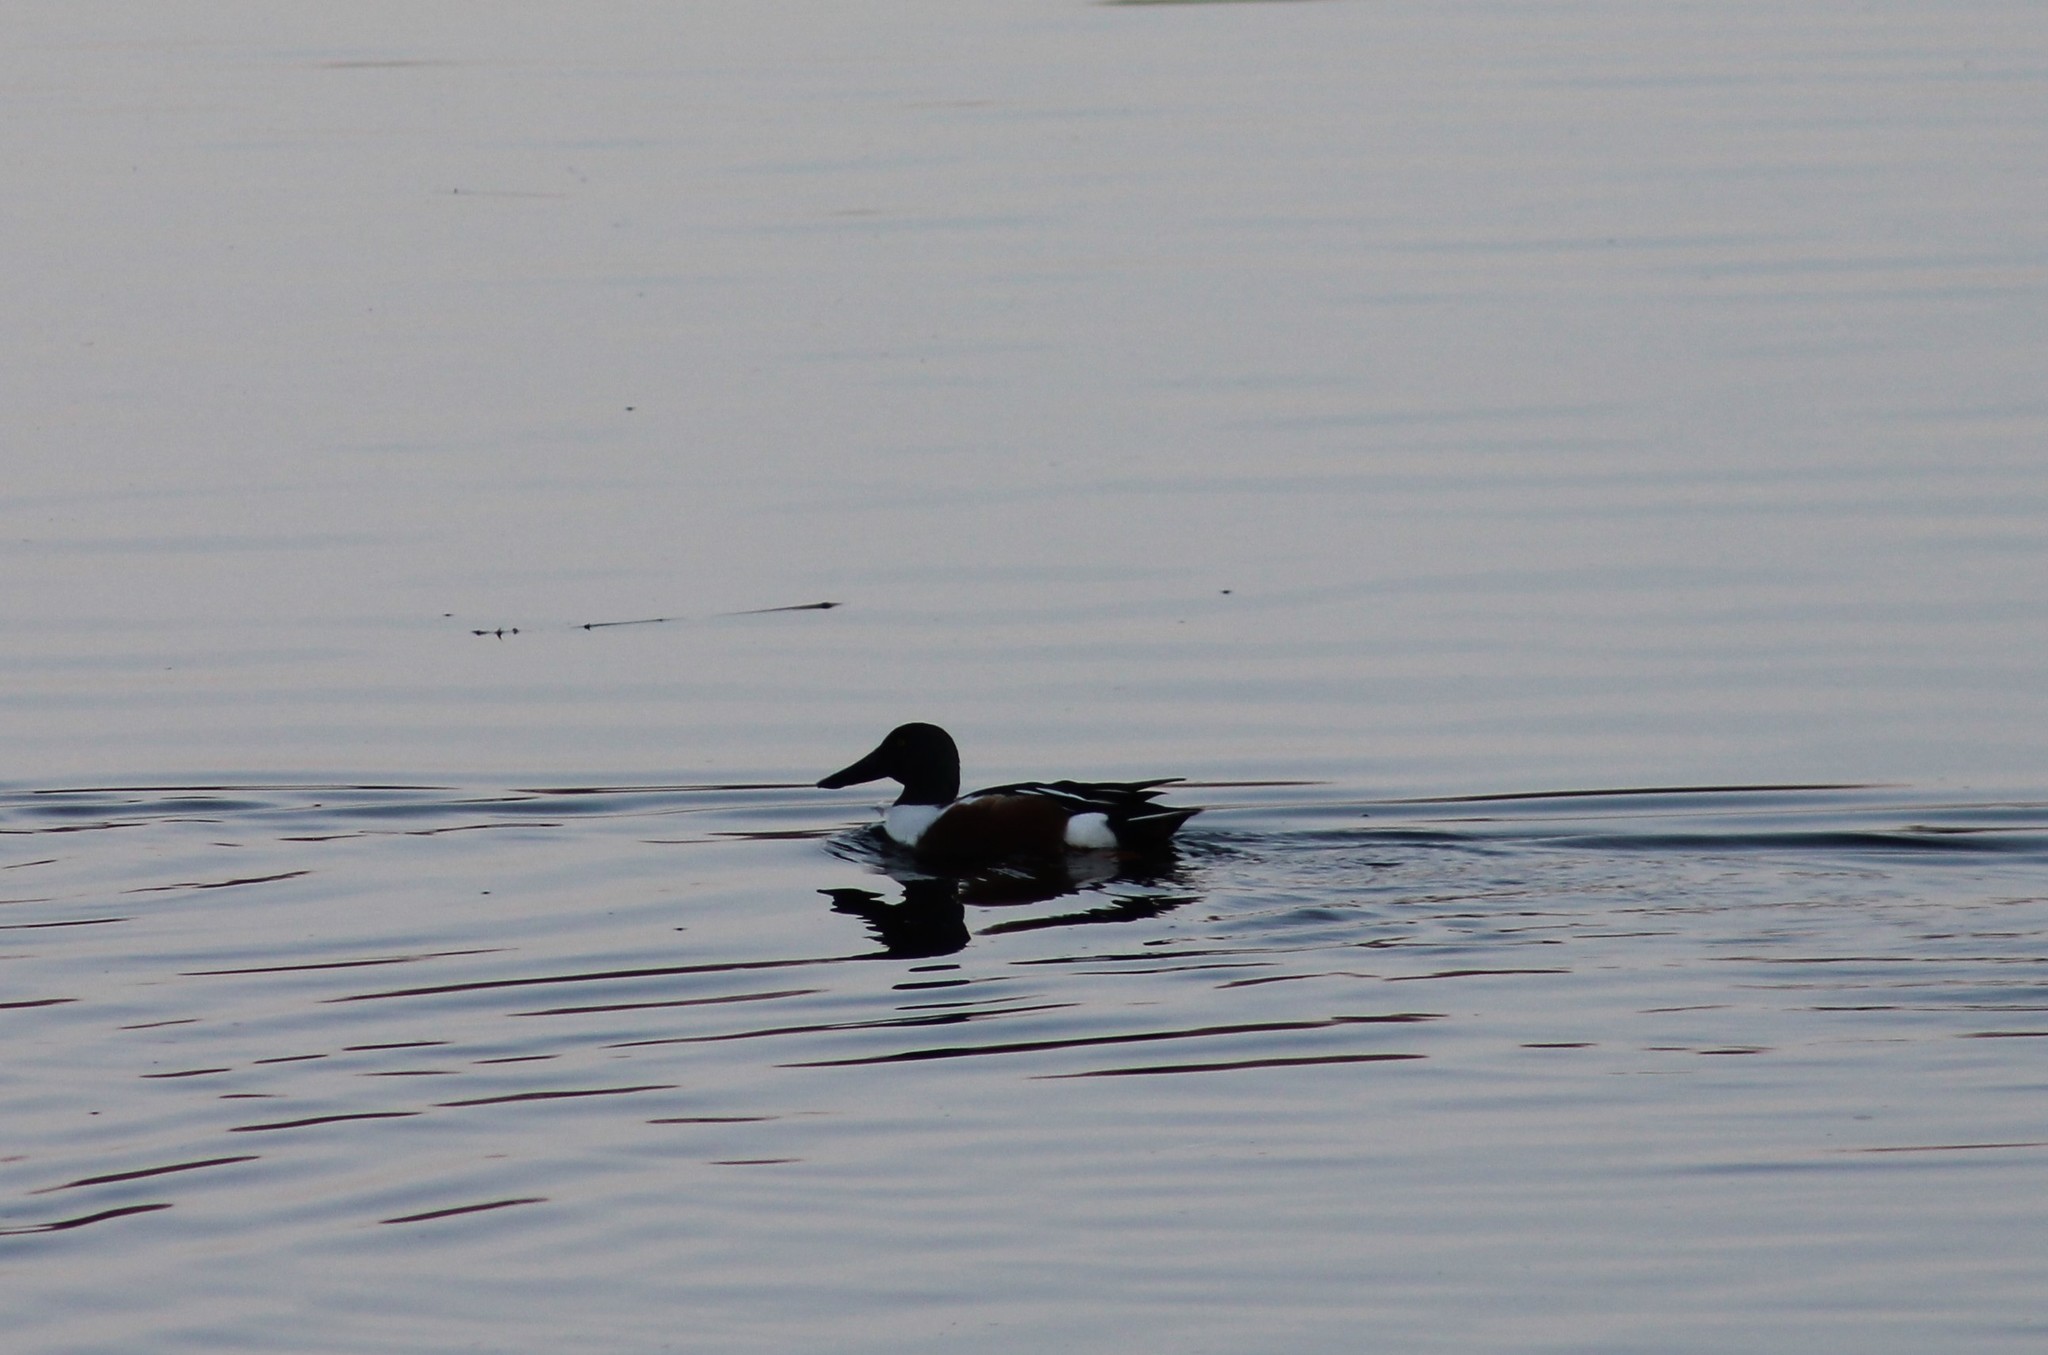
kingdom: Animalia
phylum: Chordata
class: Aves
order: Anseriformes
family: Anatidae
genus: Spatula
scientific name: Spatula clypeata
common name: Northern shoveler
